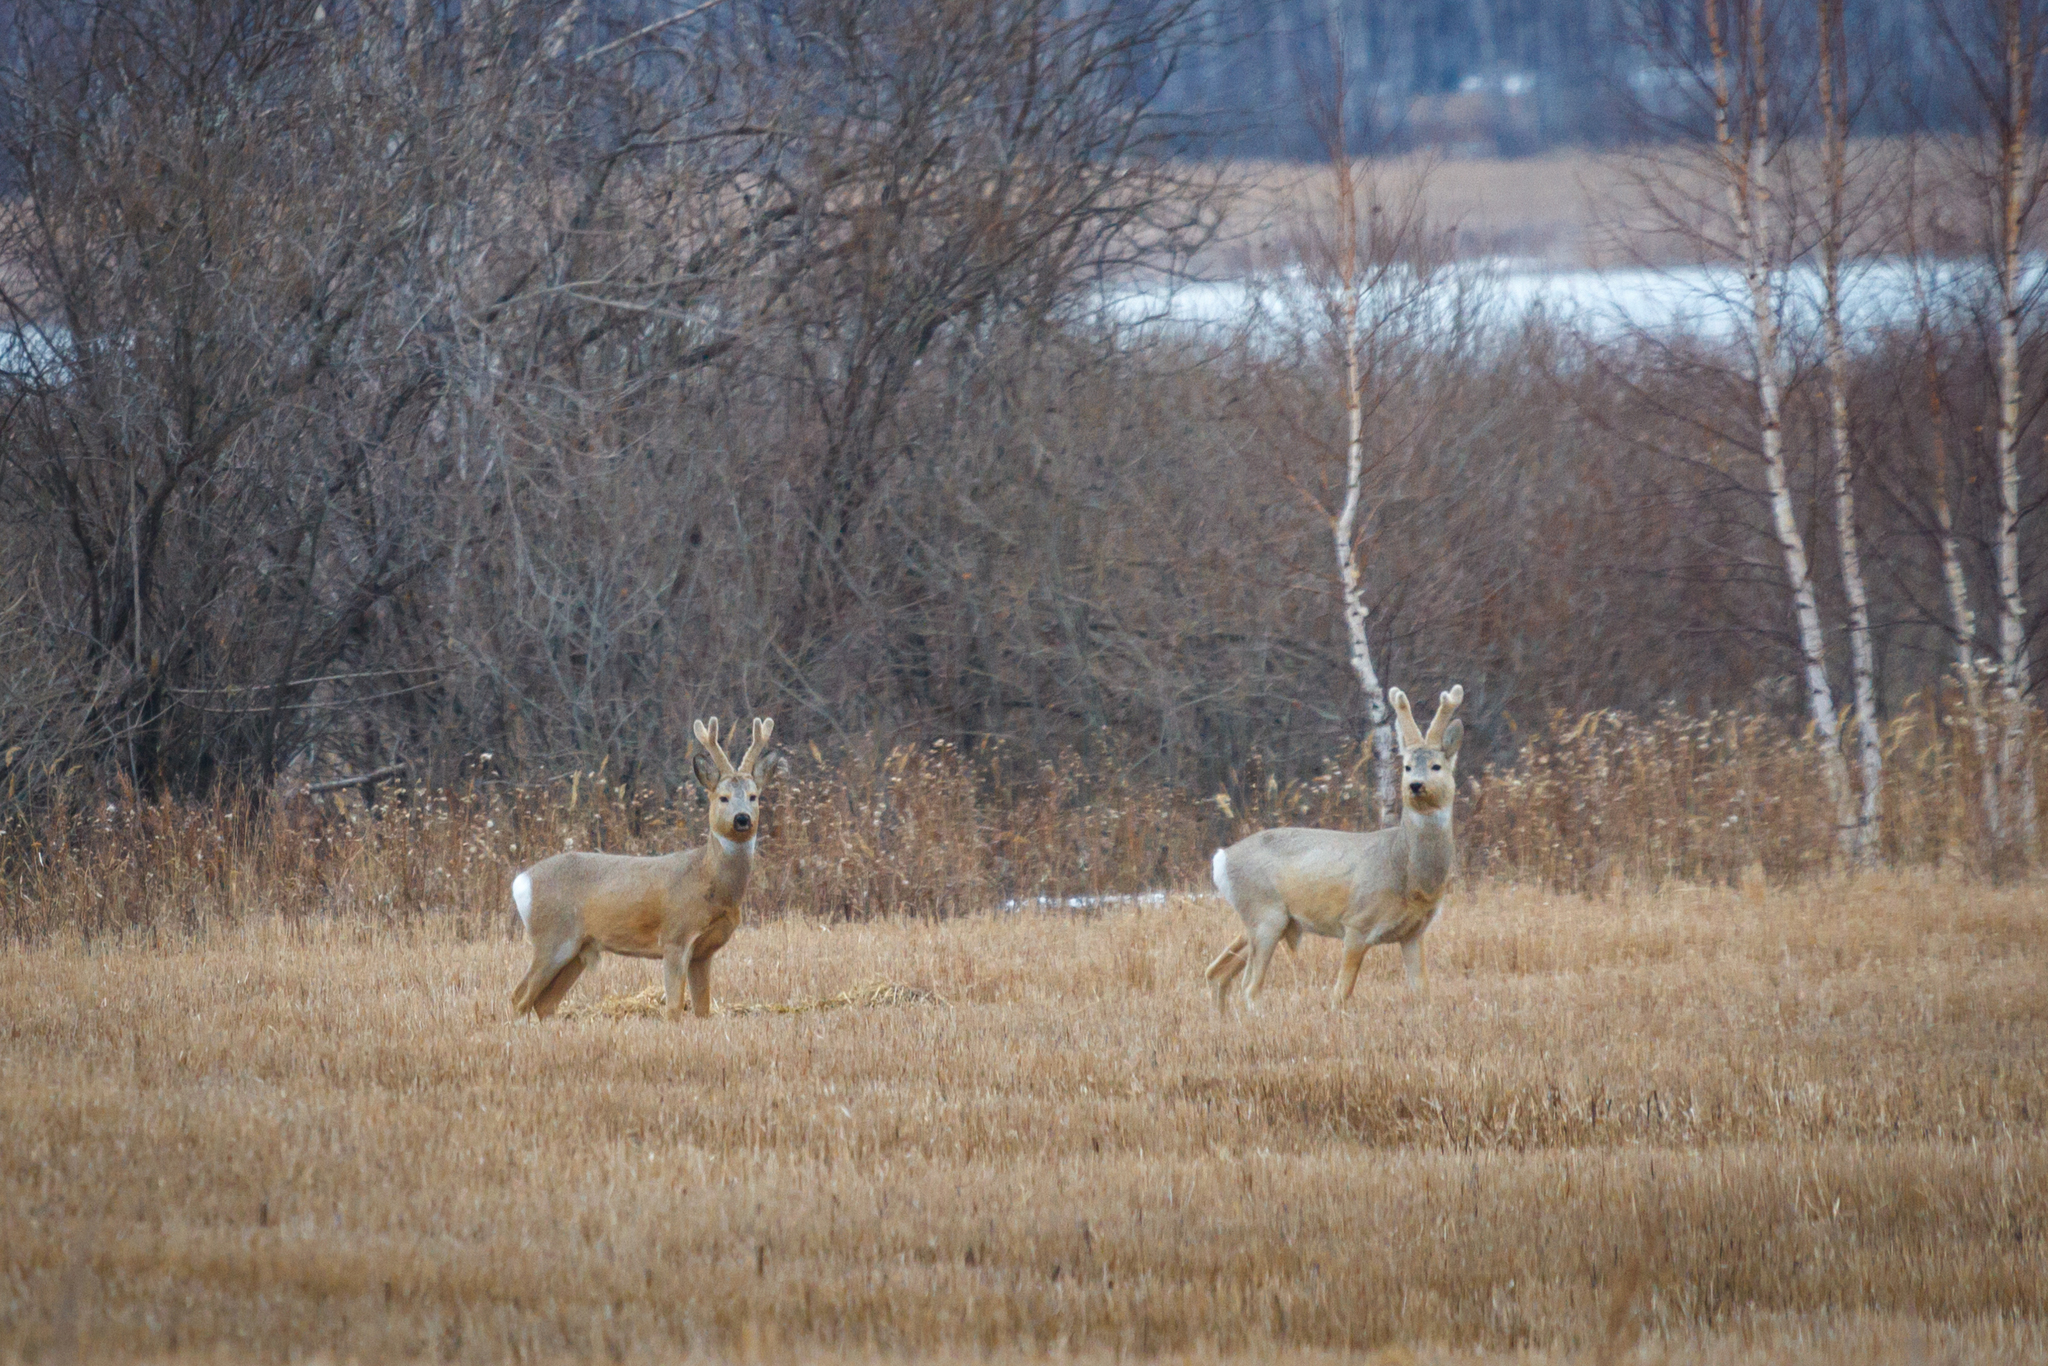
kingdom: Animalia
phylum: Chordata
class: Mammalia
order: Artiodactyla
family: Cervidae
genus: Capreolus
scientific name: Capreolus pygargus
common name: Siberian roe
